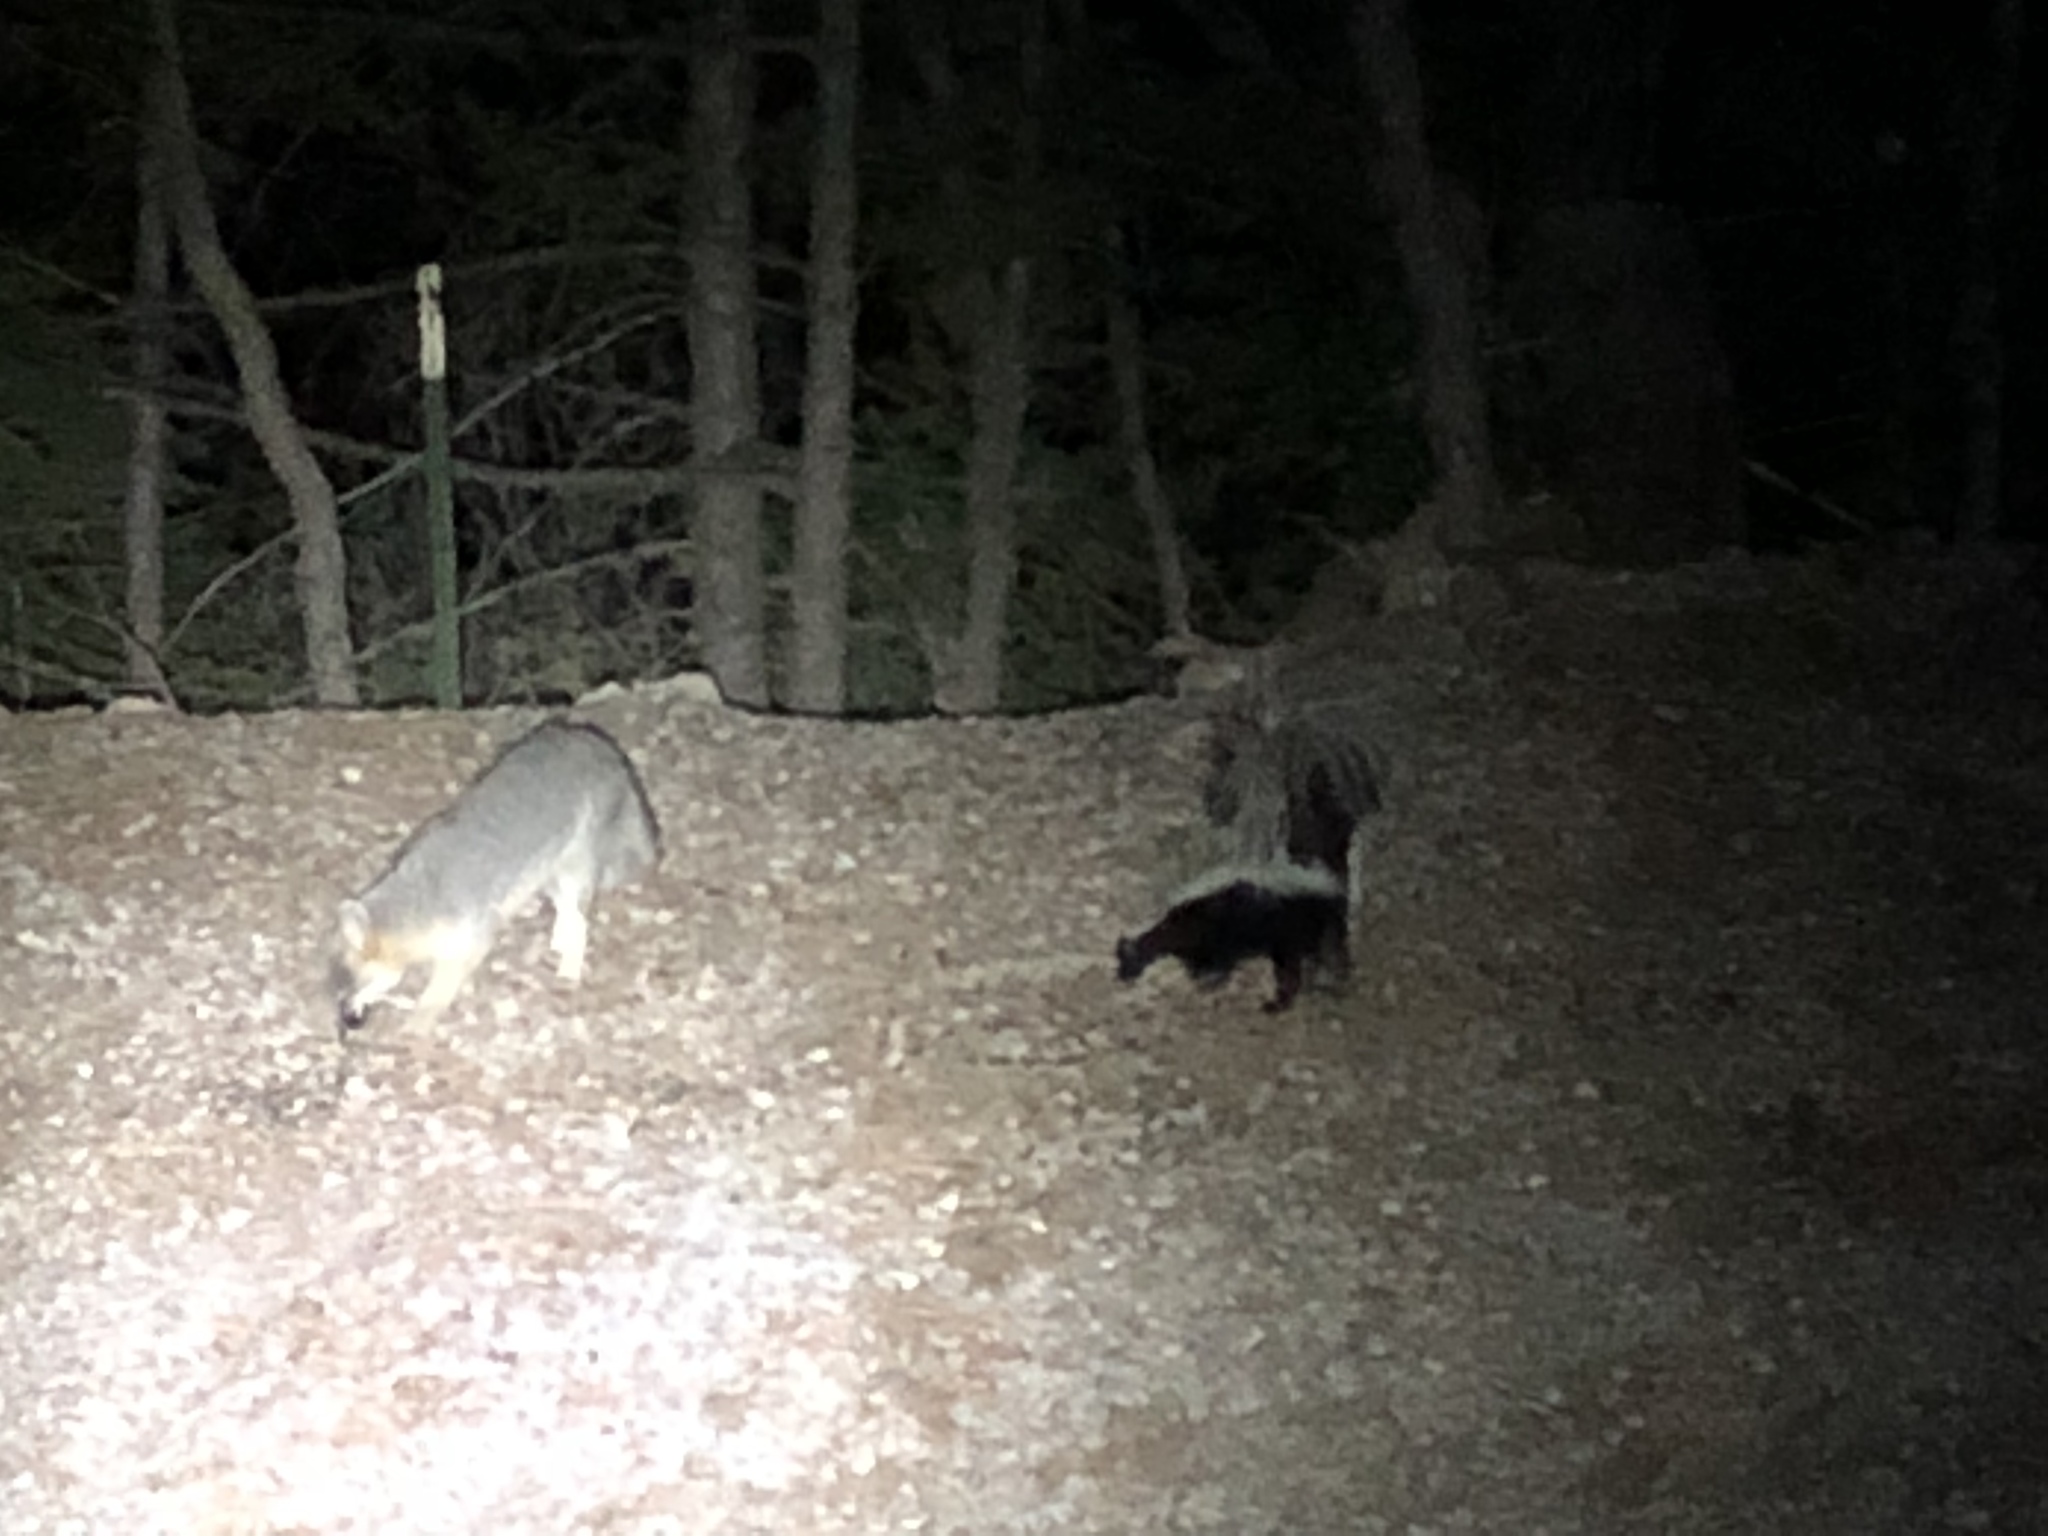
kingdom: Animalia
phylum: Chordata
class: Mammalia
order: Carnivora
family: Mephitidae
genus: Mephitis
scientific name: Mephitis mephitis
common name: Striped skunk
